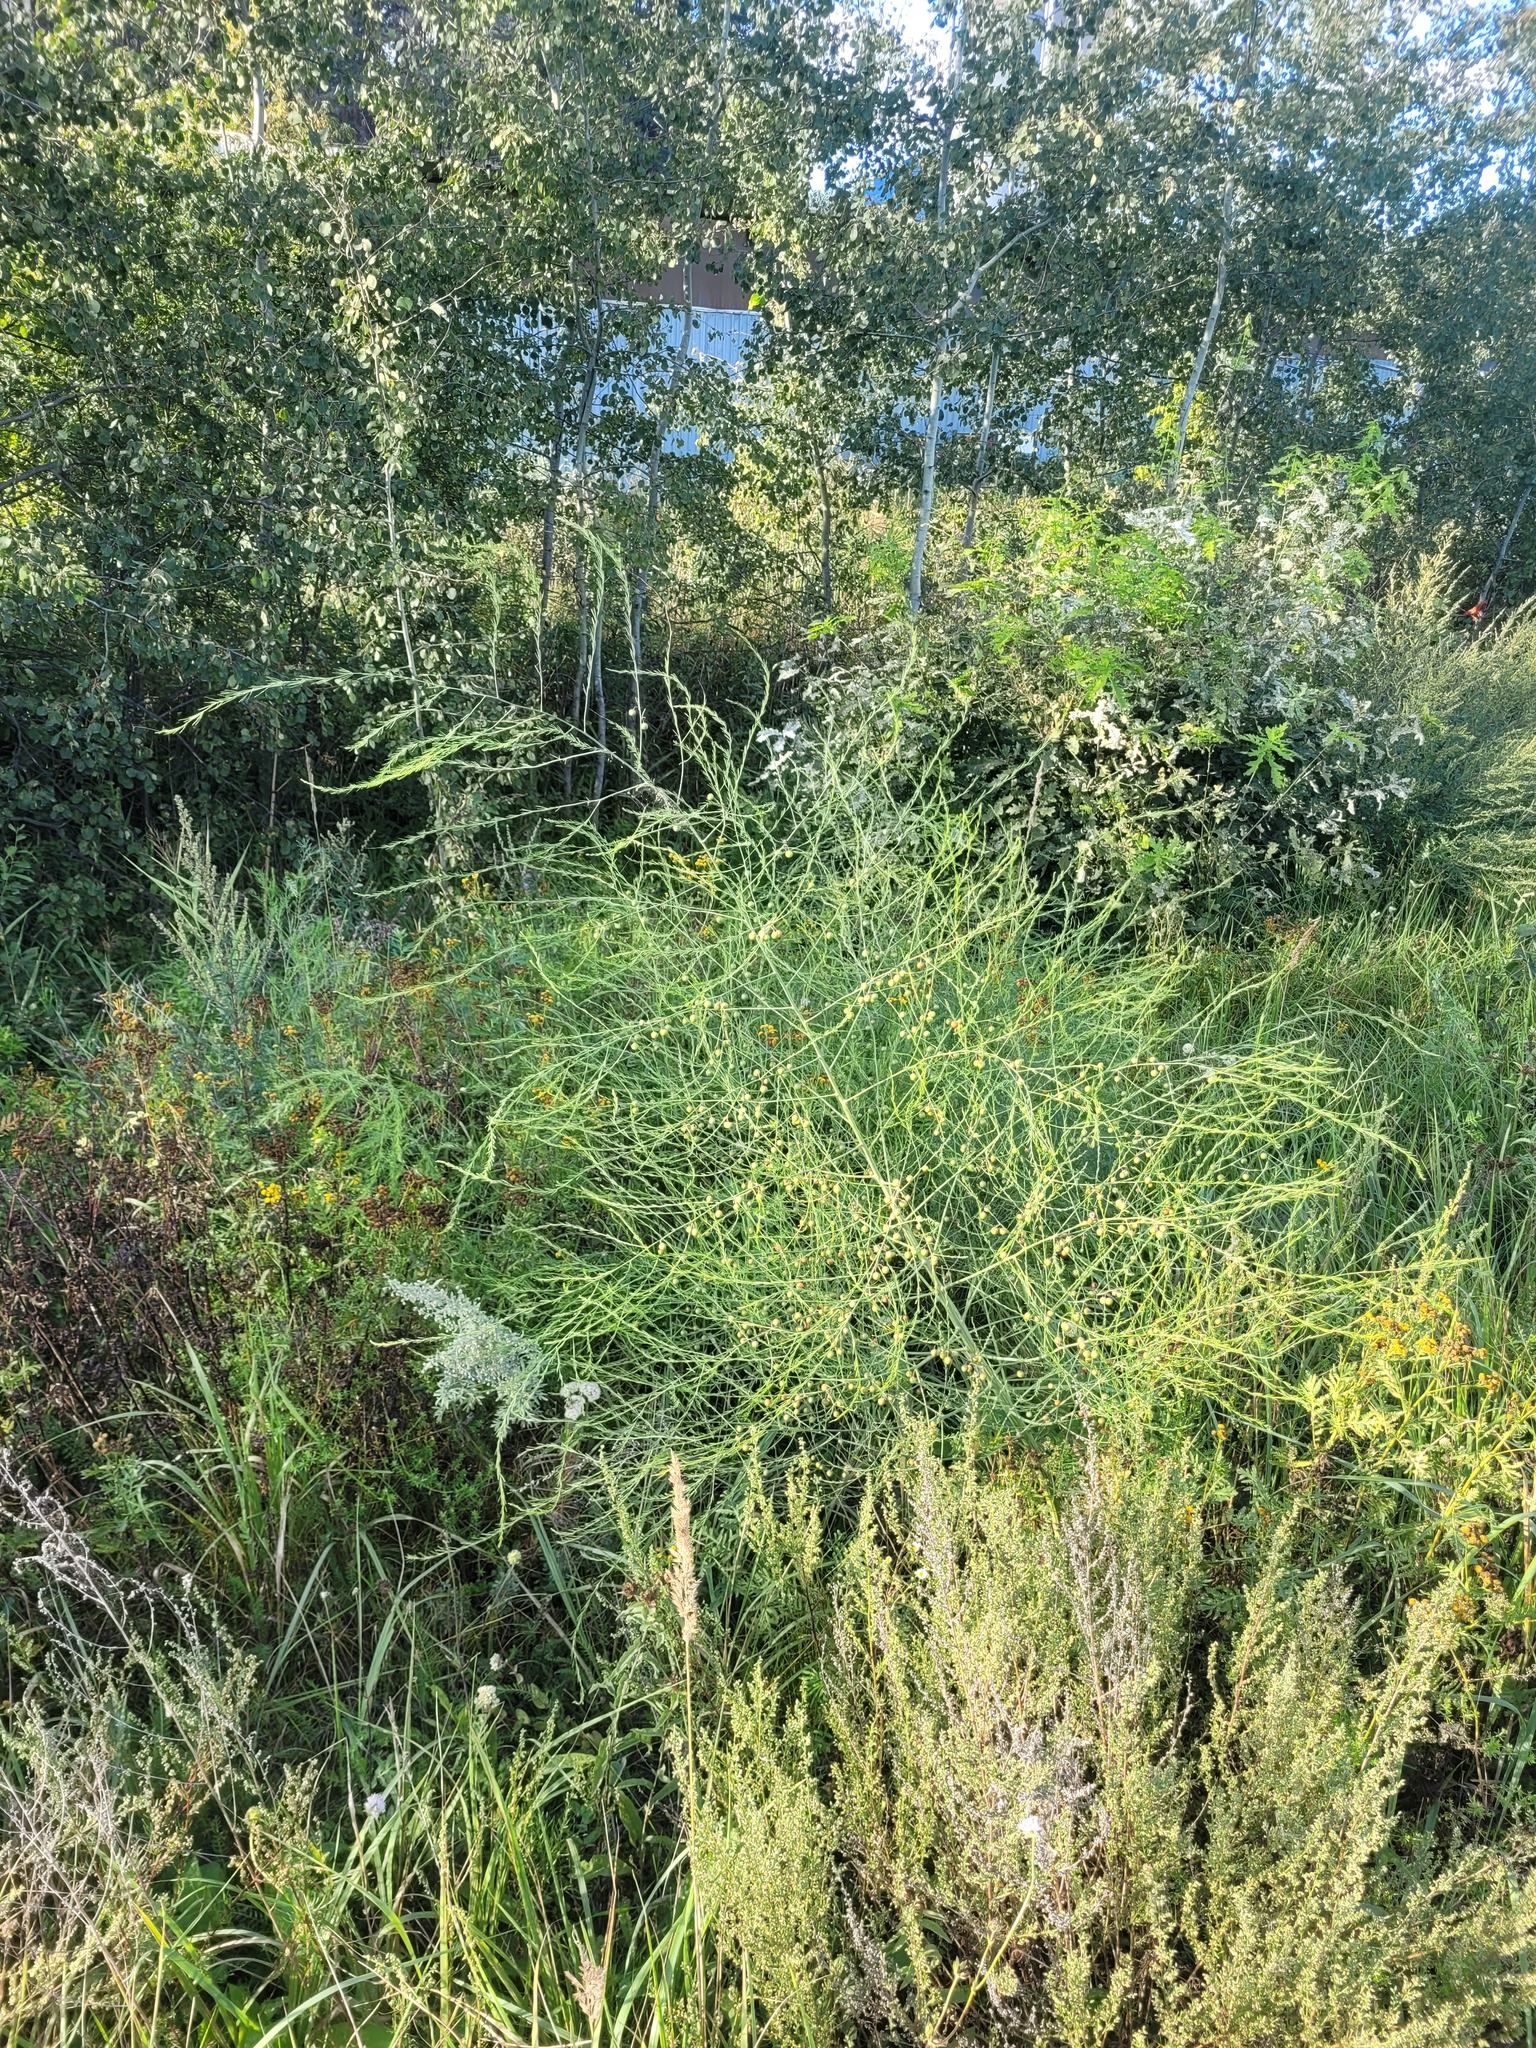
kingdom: Plantae
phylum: Tracheophyta
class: Liliopsida
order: Asparagales
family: Asparagaceae
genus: Asparagus
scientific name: Asparagus officinalis
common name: Garden asparagus
